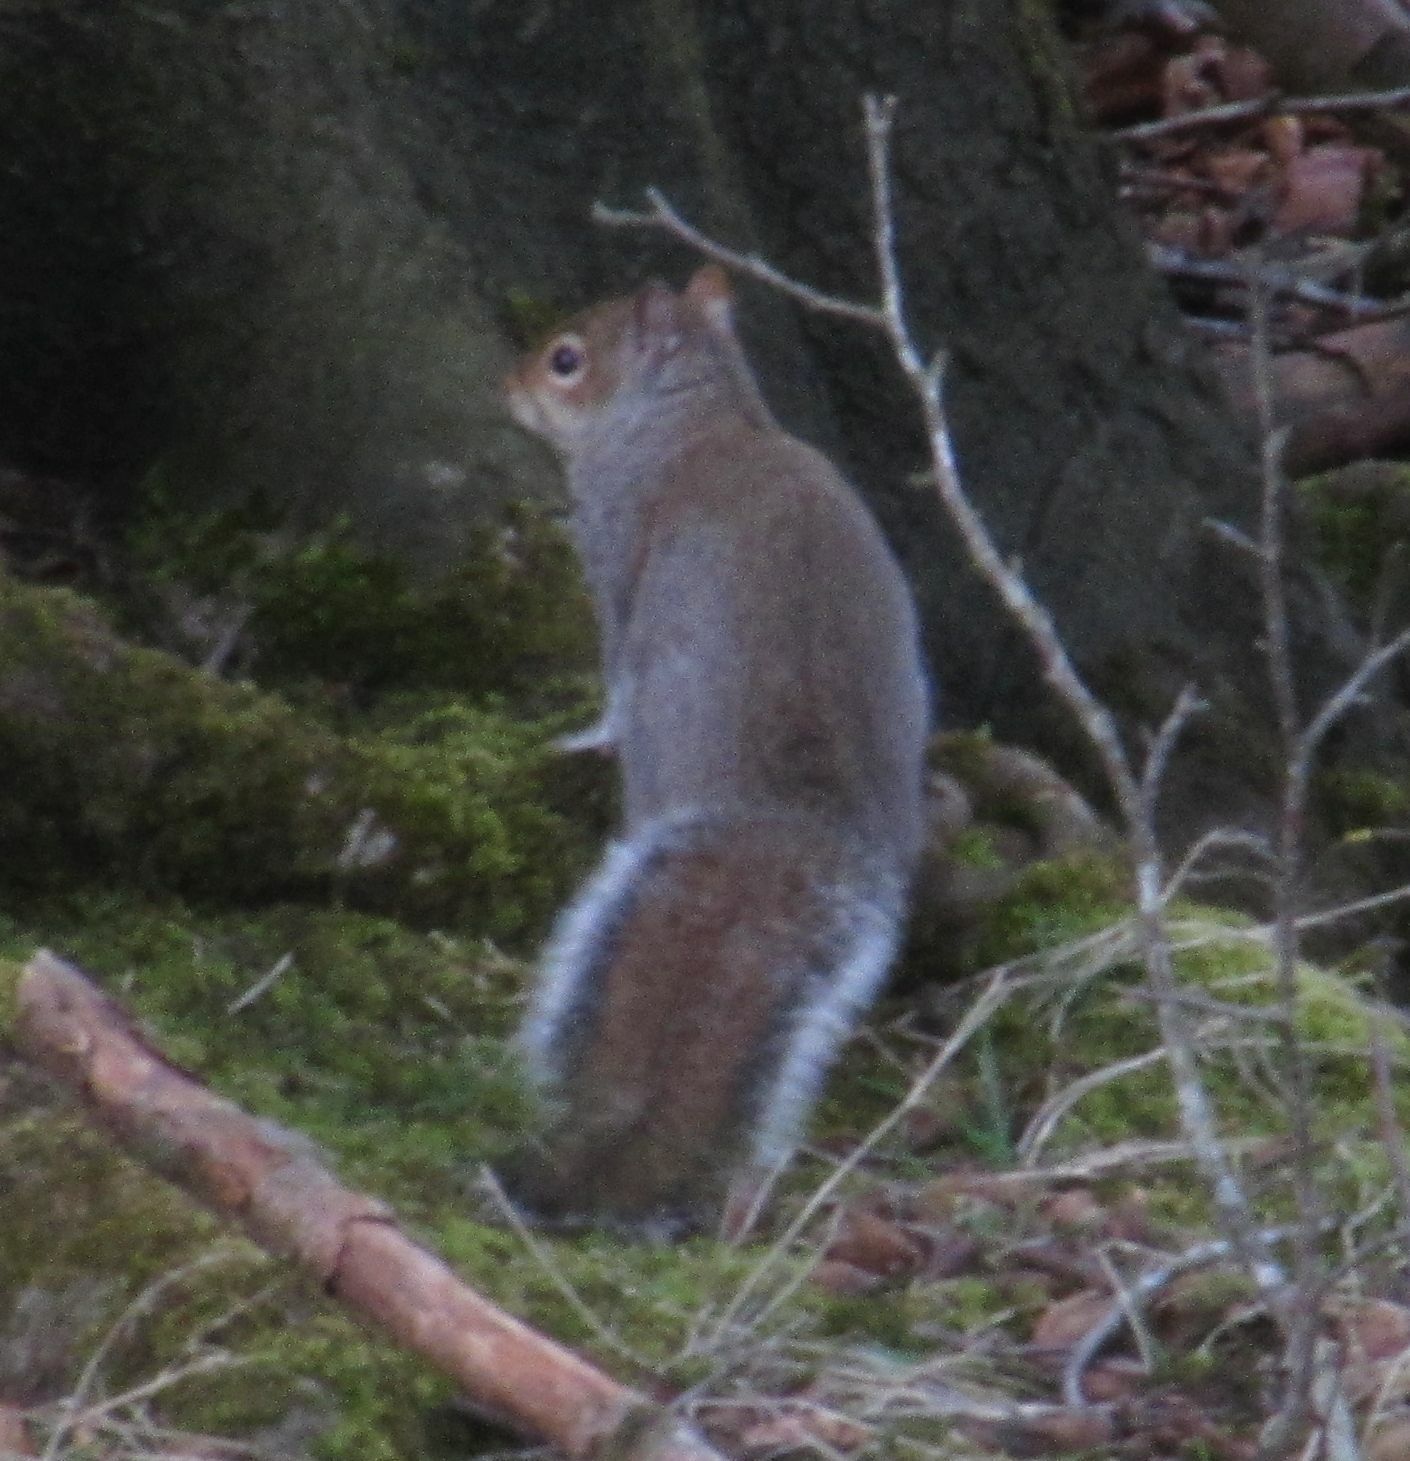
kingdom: Animalia
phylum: Chordata
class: Mammalia
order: Rodentia
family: Sciuridae
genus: Sciurus
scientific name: Sciurus carolinensis
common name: Eastern gray squirrel
